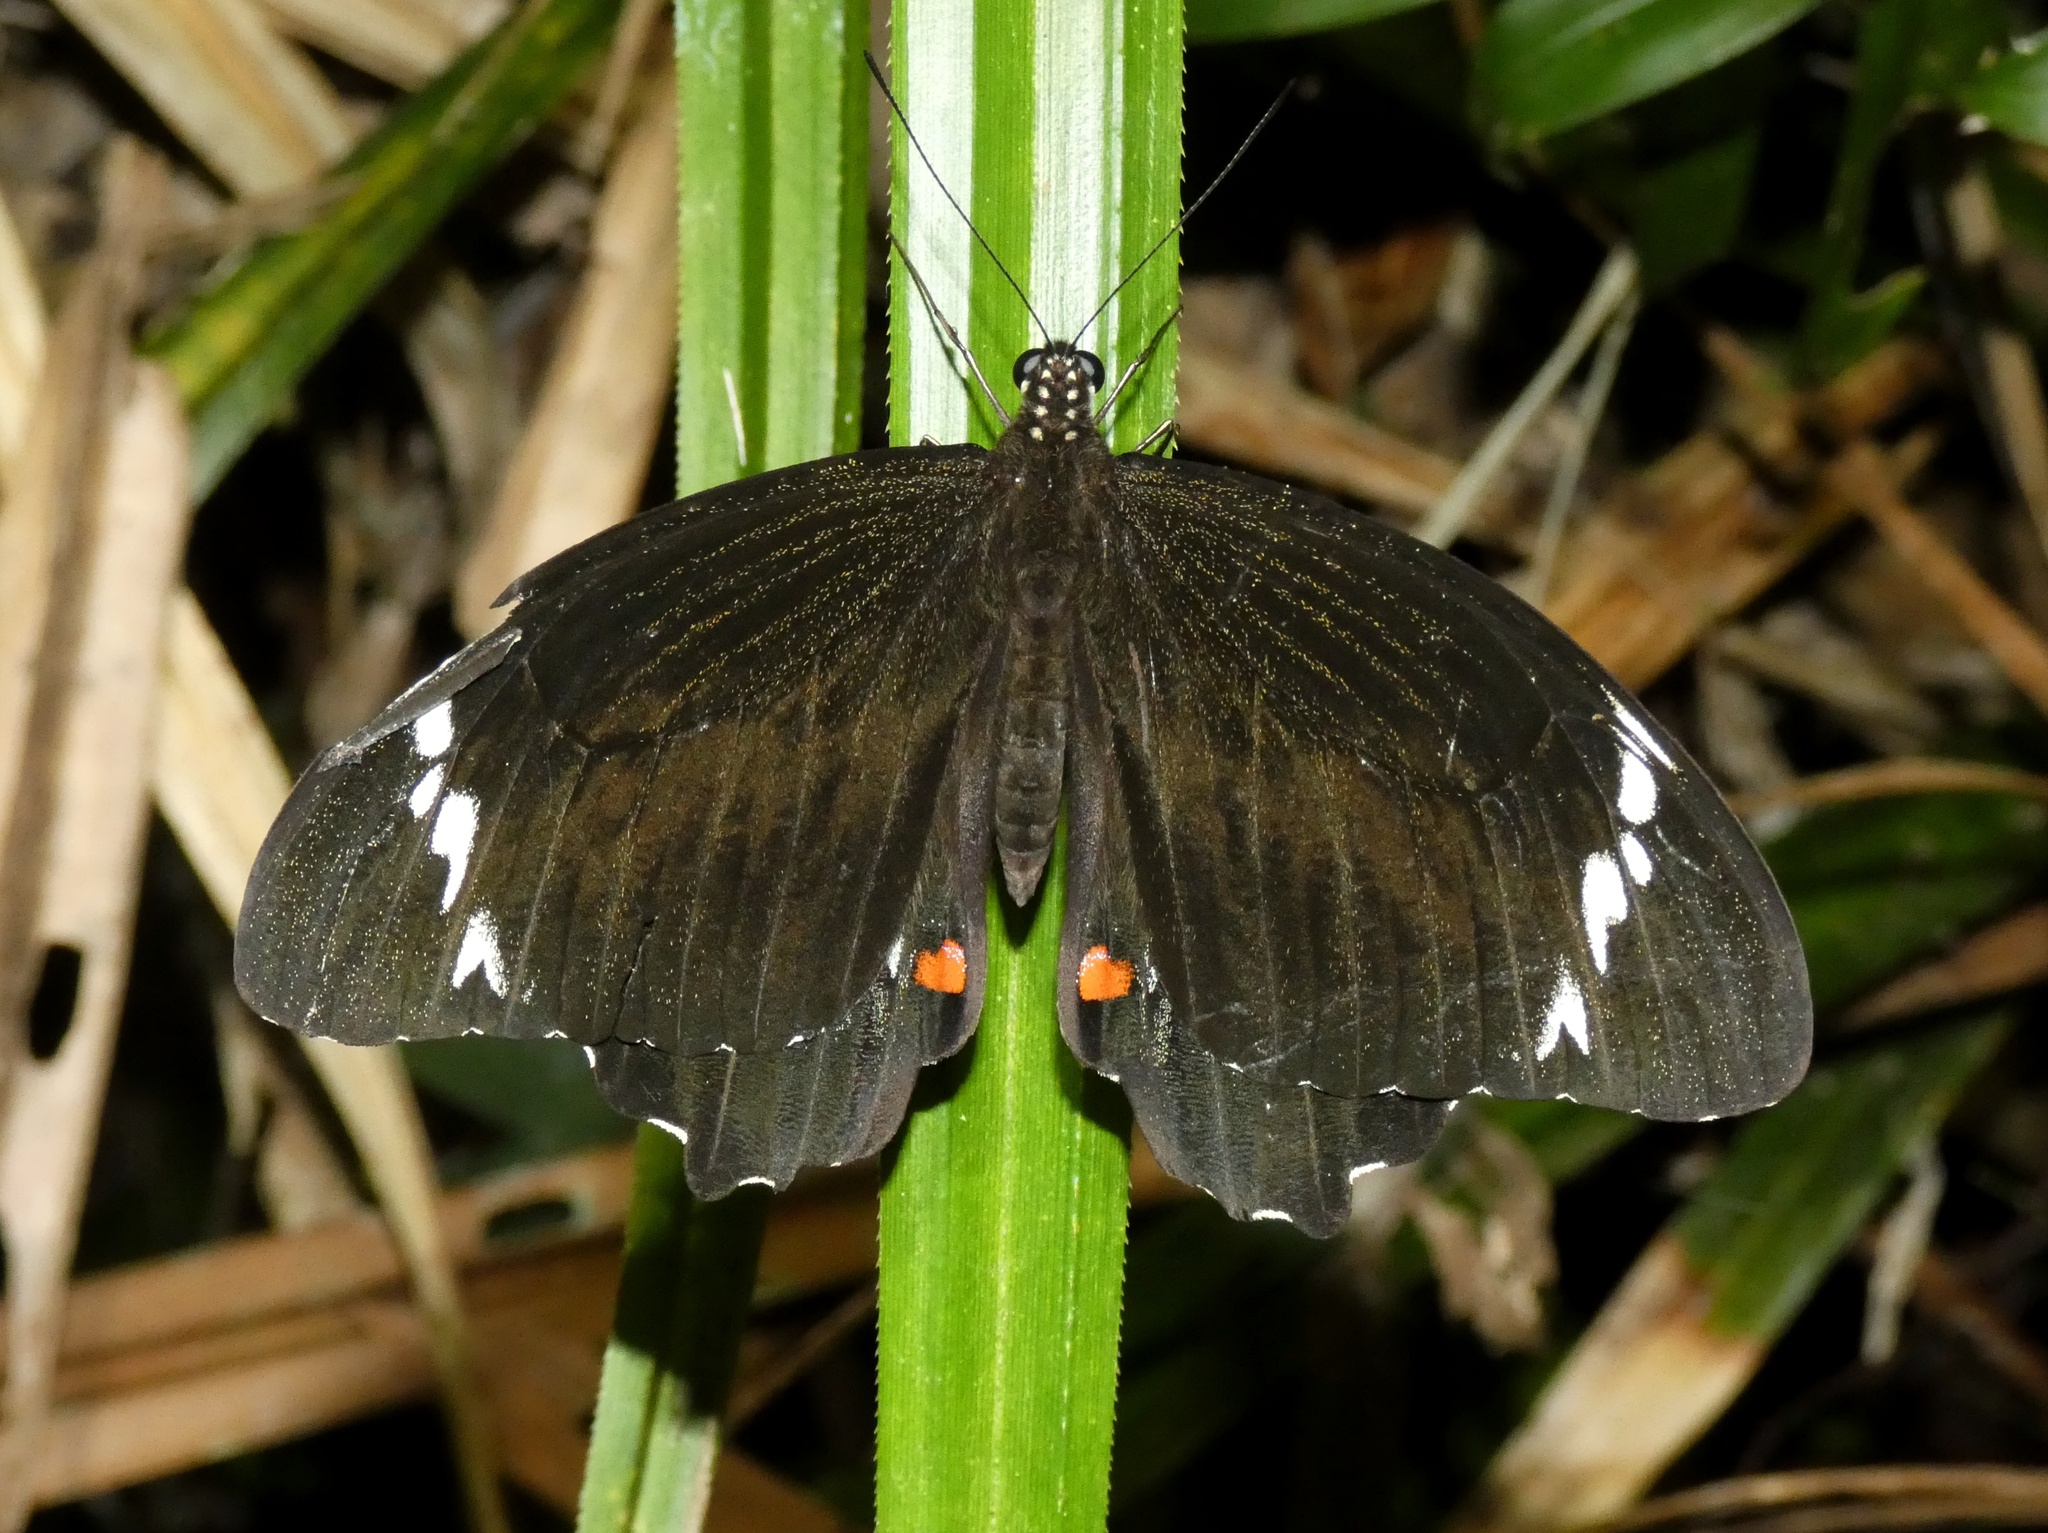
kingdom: Animalia
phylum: Arthropoda
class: Insecta
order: Lepidoptera
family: Papilionidae
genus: Papilio
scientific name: Papilio aegeus
